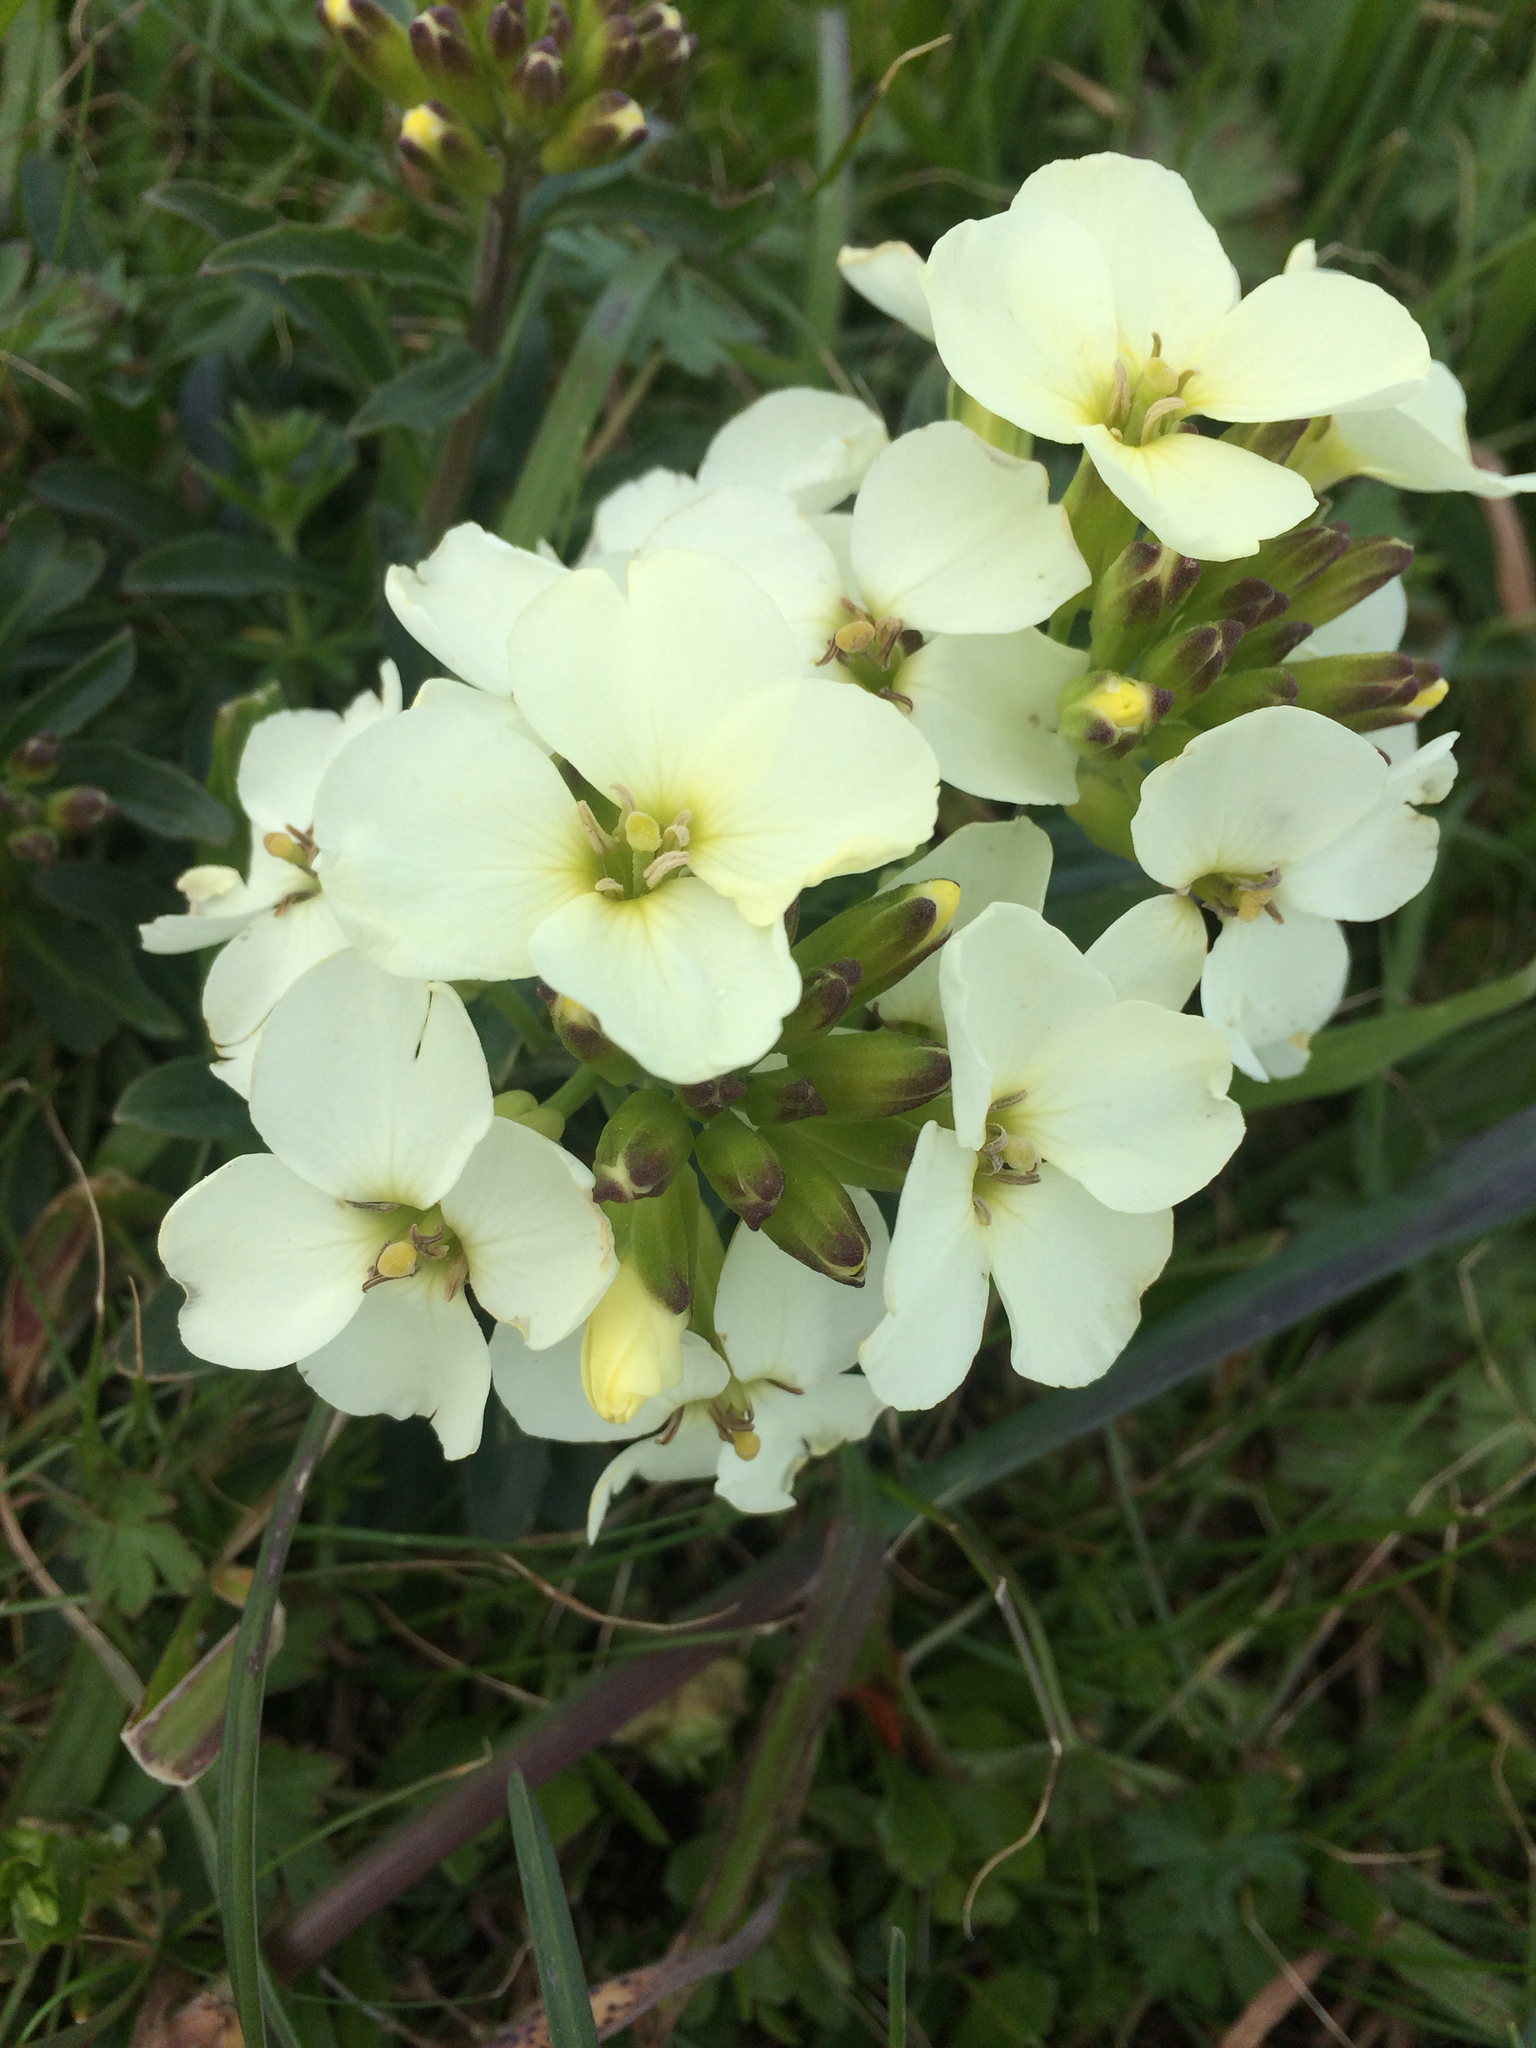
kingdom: Plantae
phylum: Tracheophyta
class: Magnoliopsida
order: Brassicales
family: Brassicaceae
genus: Erysimum
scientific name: Erysimum concinnum
